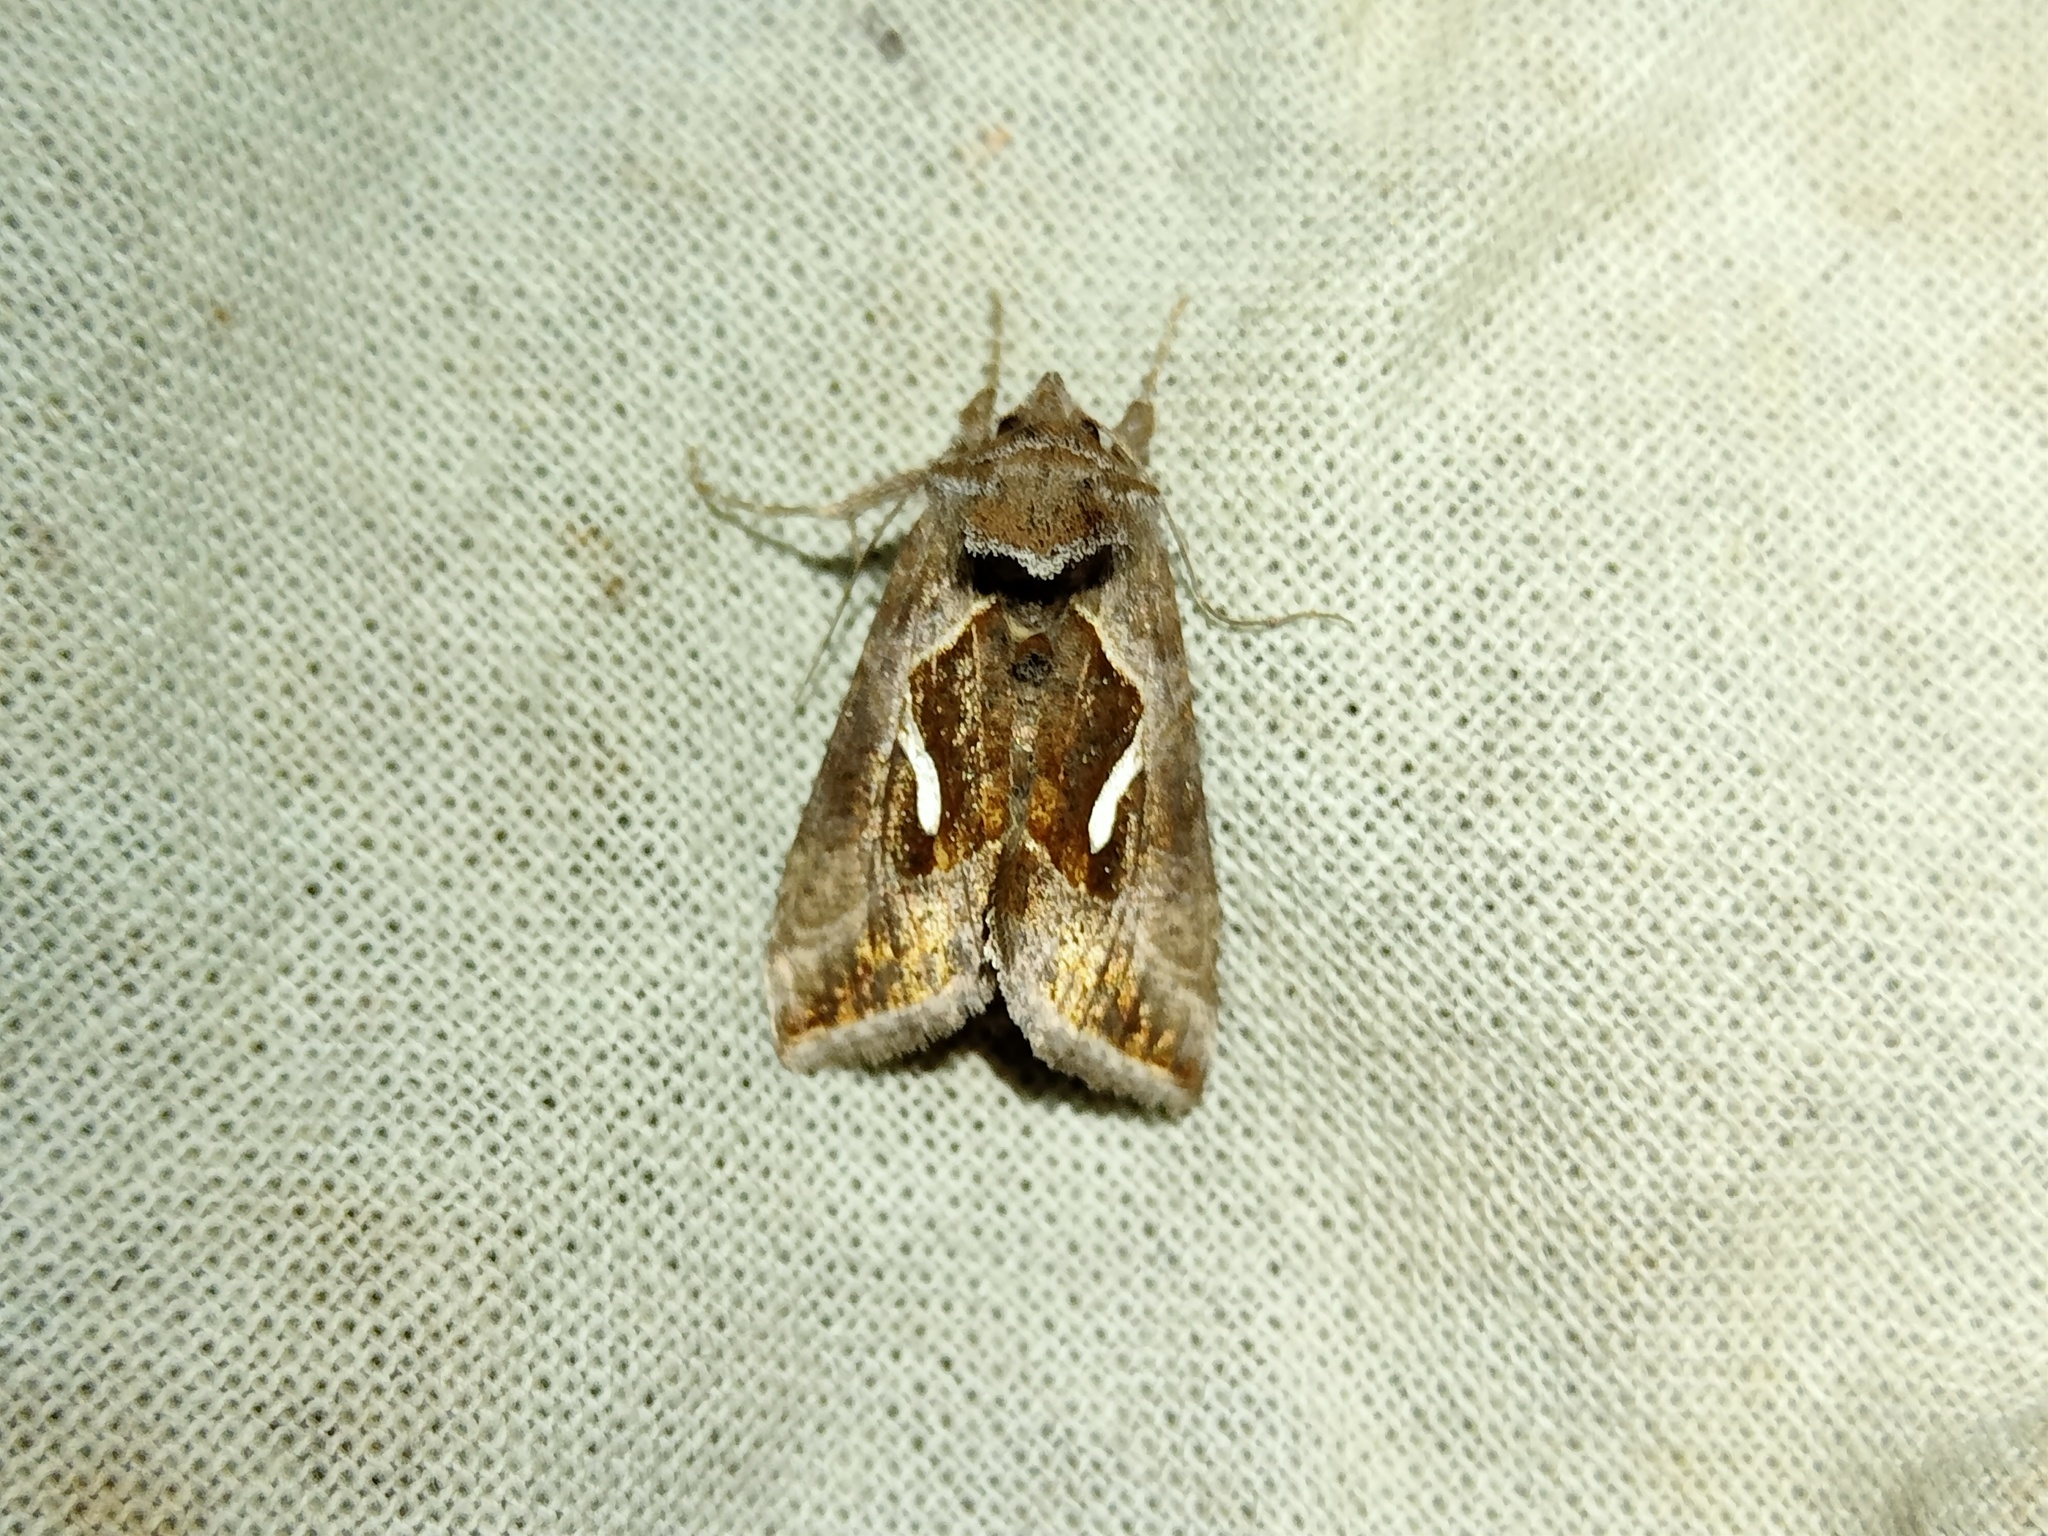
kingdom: Animalia
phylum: Arthropoda
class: Insecta
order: Lepidoptera
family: Noctuidae
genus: Macdunnoughia
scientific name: Macdunnoughia confusa
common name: Dewick's plusia
